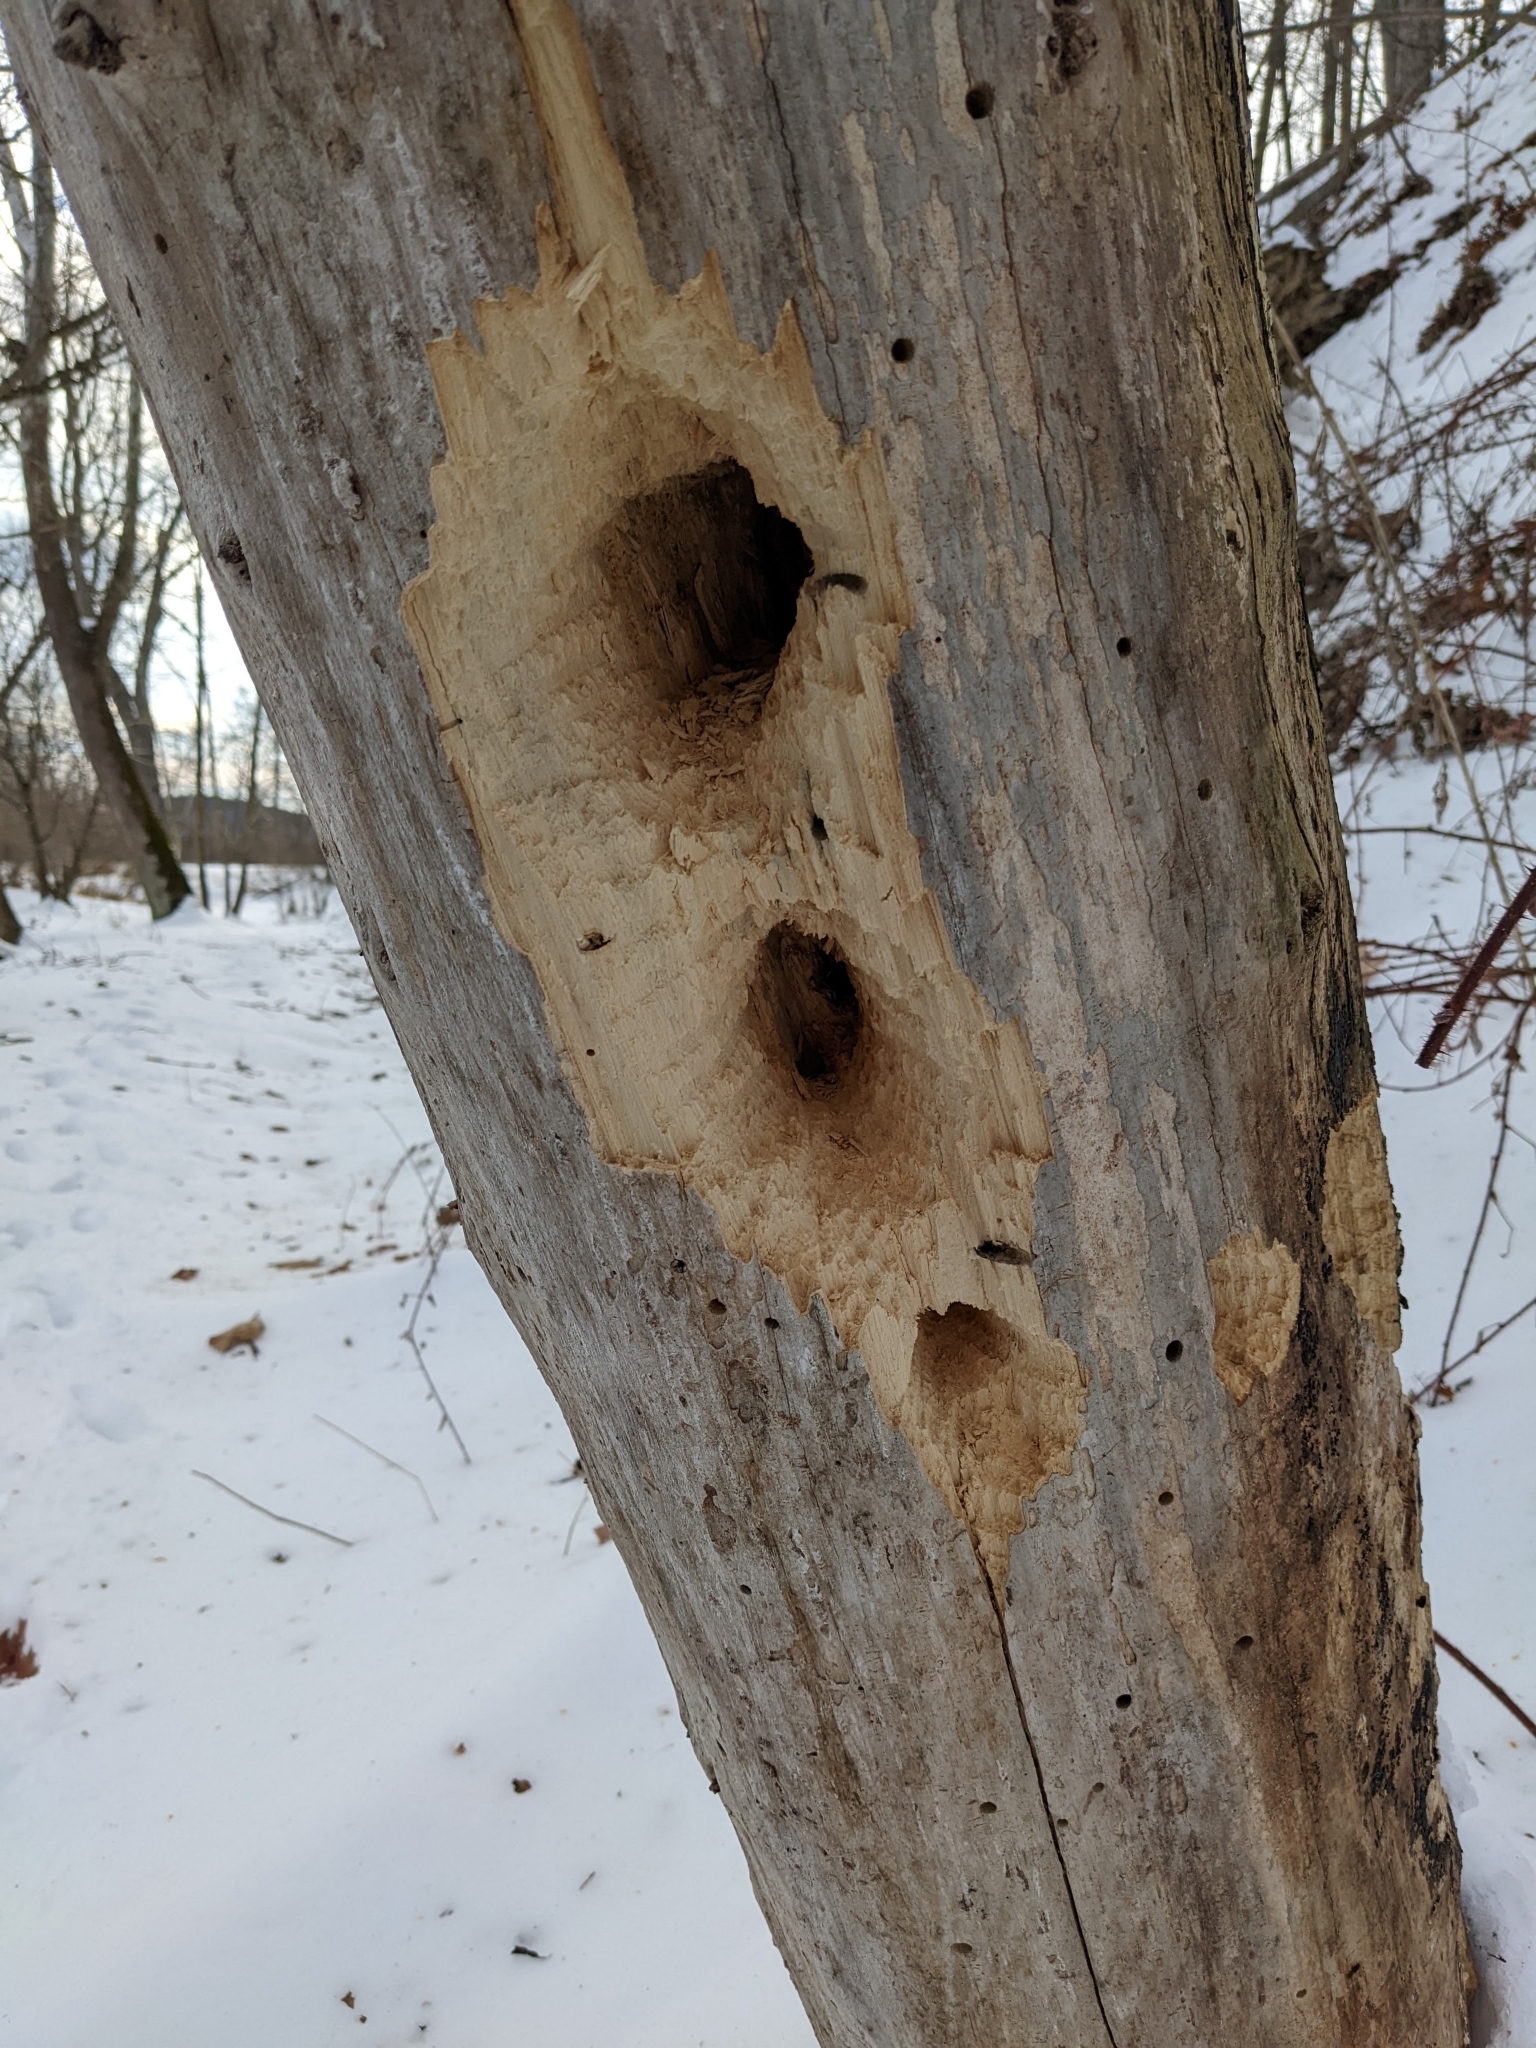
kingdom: Animalia
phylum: Chordata
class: Aves
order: Piciformes
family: Picidae
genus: Dryocopus
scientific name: Dryocopus pileatus
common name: Pileated woodpecker
